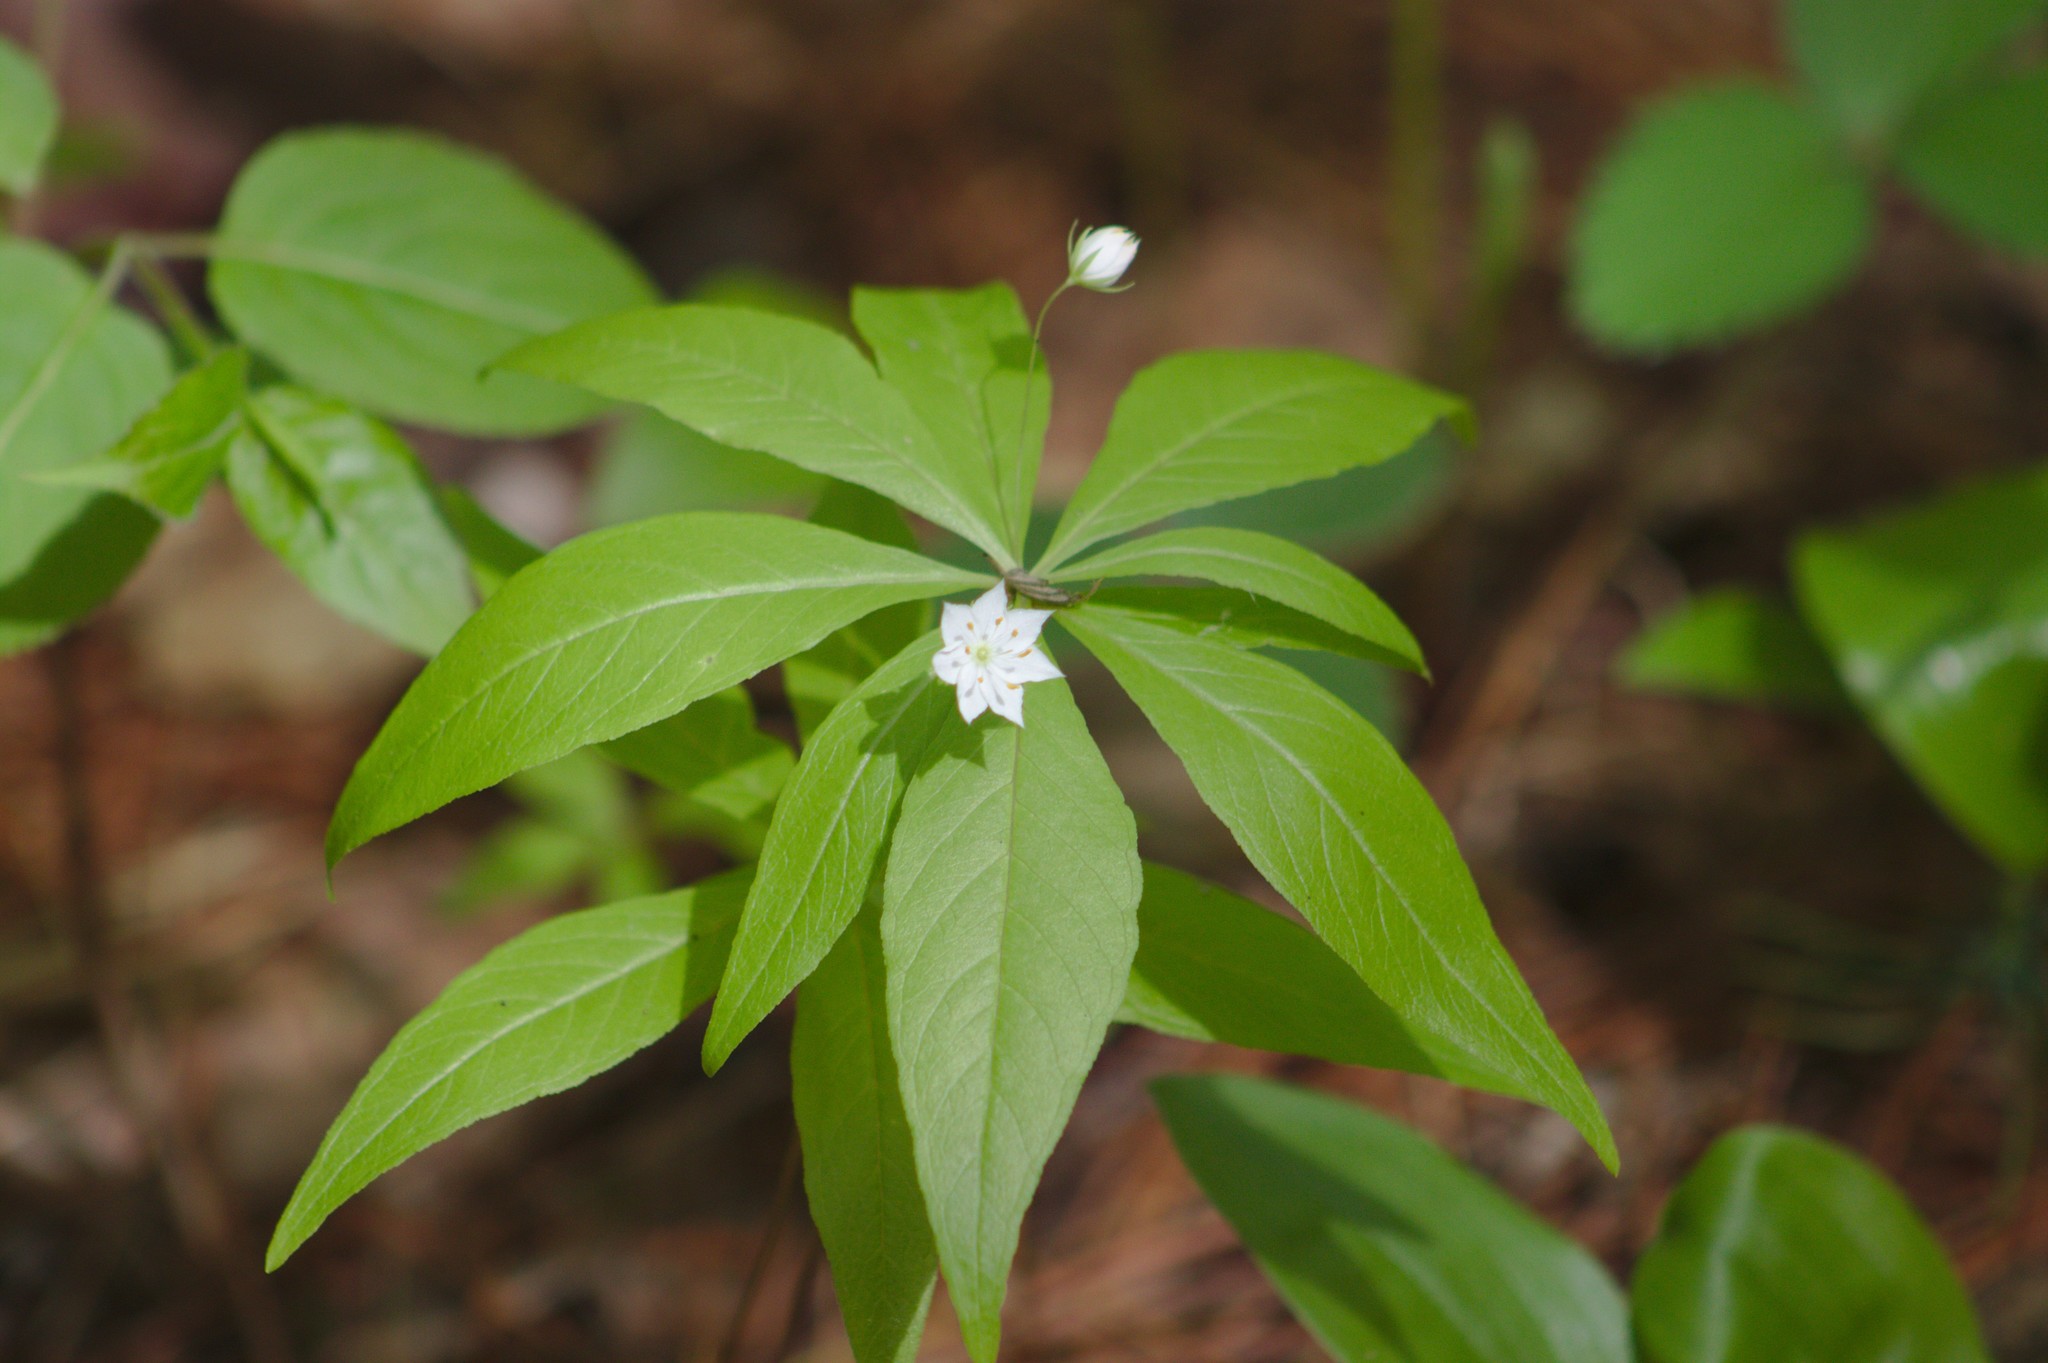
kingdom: Plantae
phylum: Tracheophyta
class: Magnoliopsida
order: Ericales
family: Primulaceae
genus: Lysimachia
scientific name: Lysimachia borealis
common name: American starflower
